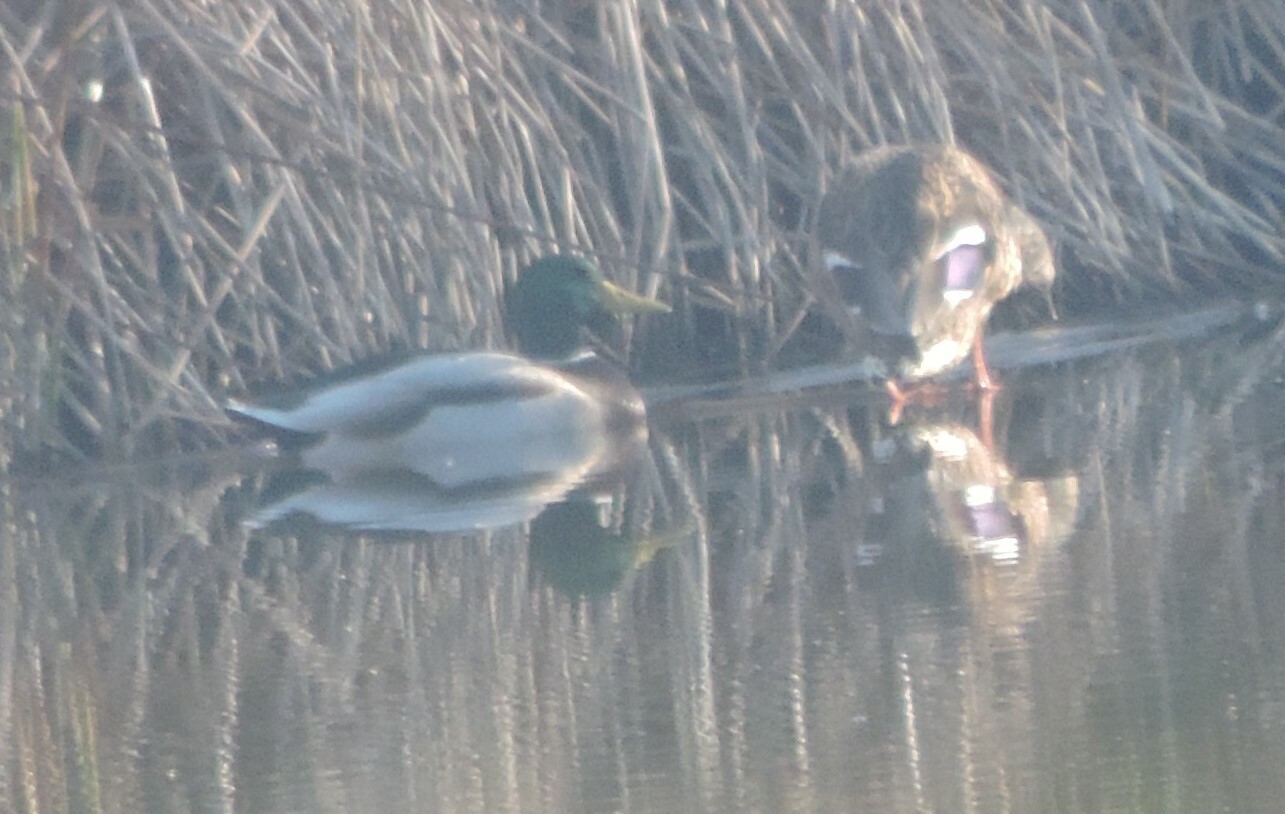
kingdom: Animalia
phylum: Chordata
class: Aves
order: Anseriformes
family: Anatidae
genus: Anas
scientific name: Anas platyrhynchos
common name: Mallard
